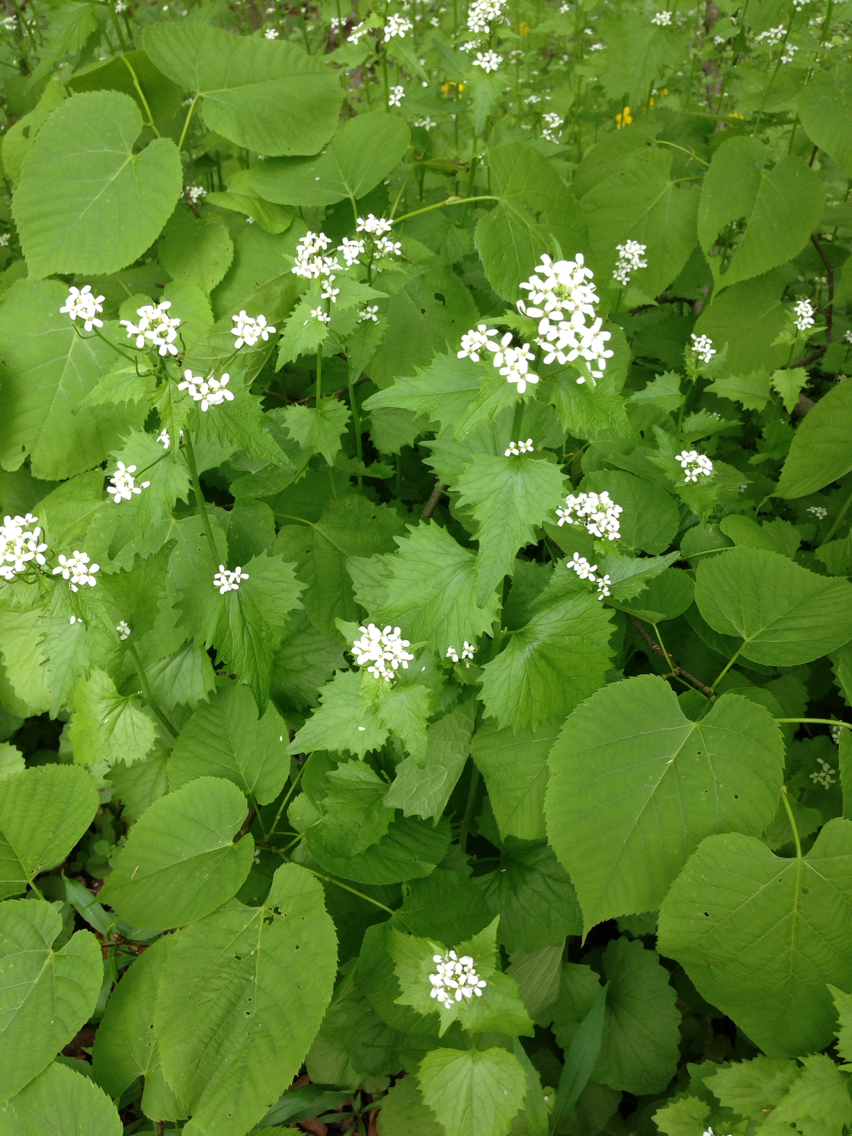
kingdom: Plantae
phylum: Tracheophyta
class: Magnoliopsida
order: Brassicales
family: Brassicaceae
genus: Alliaria
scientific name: Alliaria petiolata
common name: Garlic mustard
